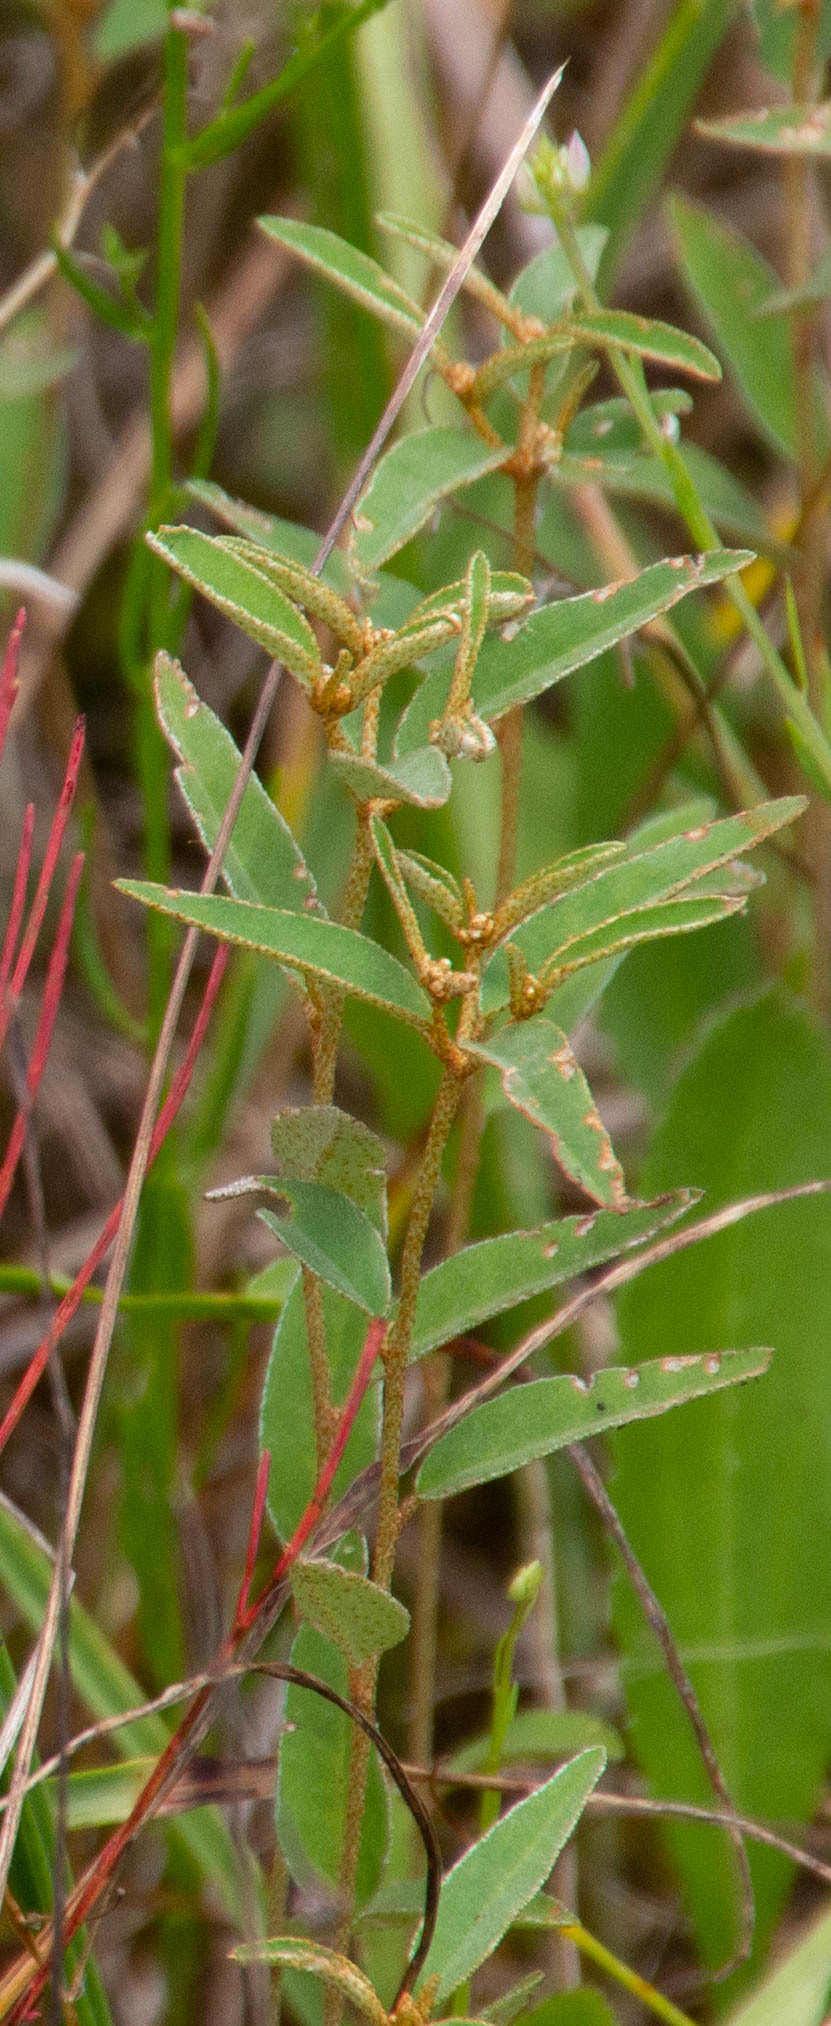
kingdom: Plantae
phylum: Tracheophyta
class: Magnoliopsida
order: Malpighiales
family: Euphorbiaceae
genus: Croton
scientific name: Croton michauxii
